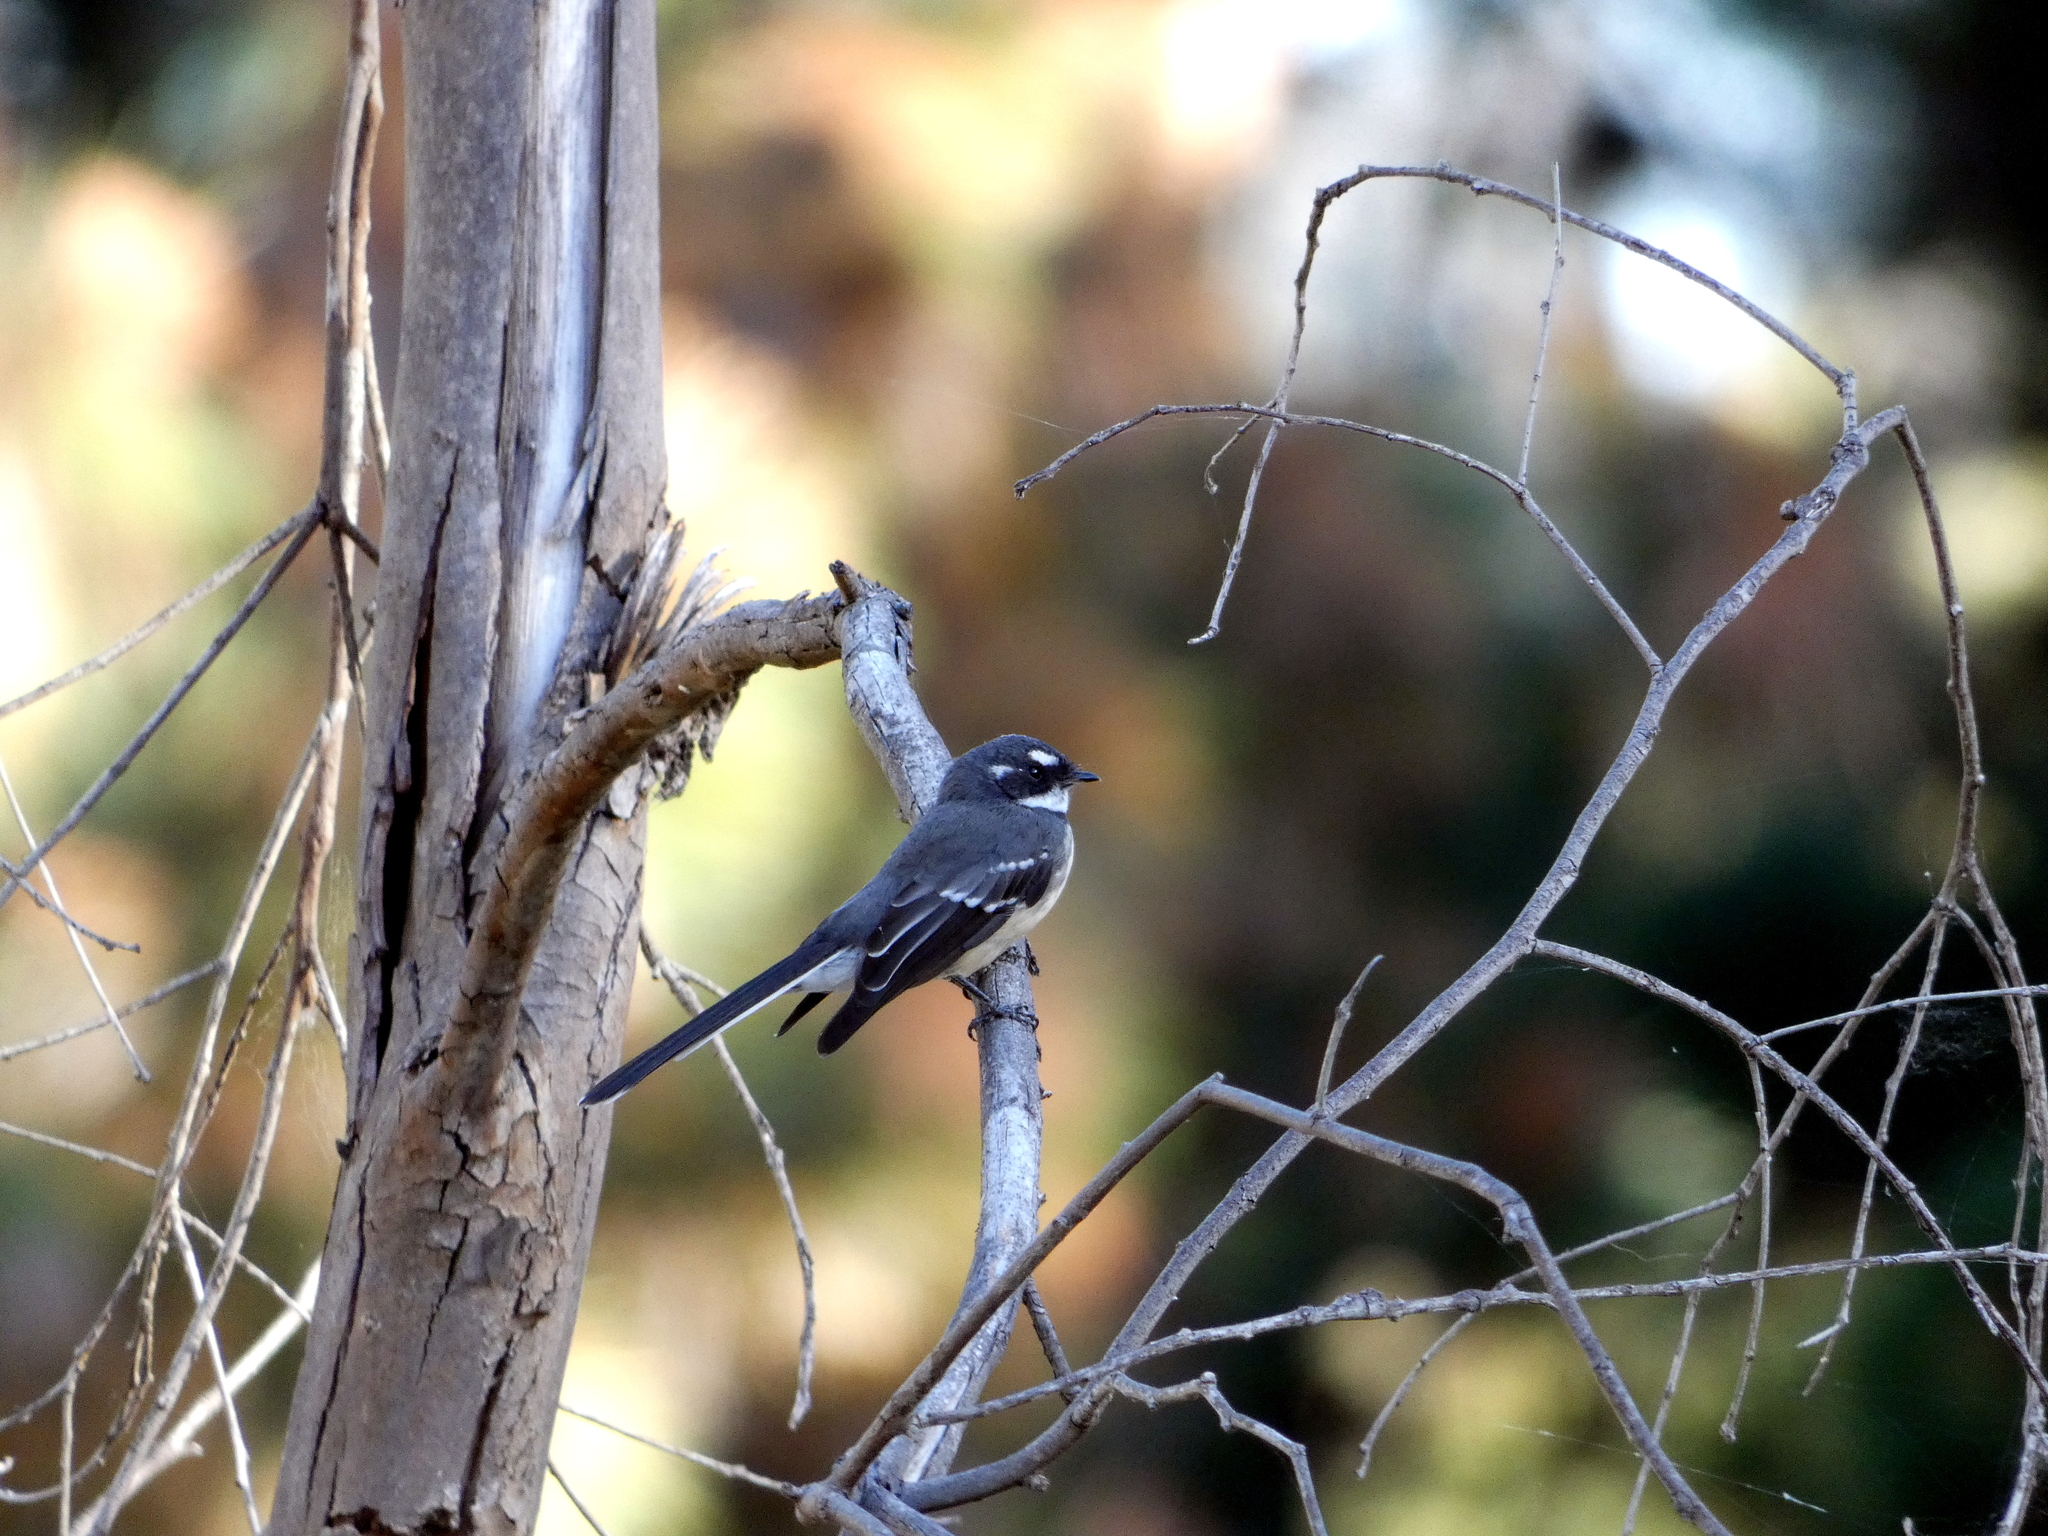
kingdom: Animalia
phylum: Chordata
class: Aves
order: Passeriformes
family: Rhipiduridae
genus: Rhipidura
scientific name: Rhipidura albiscapa
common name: Grey fantail
